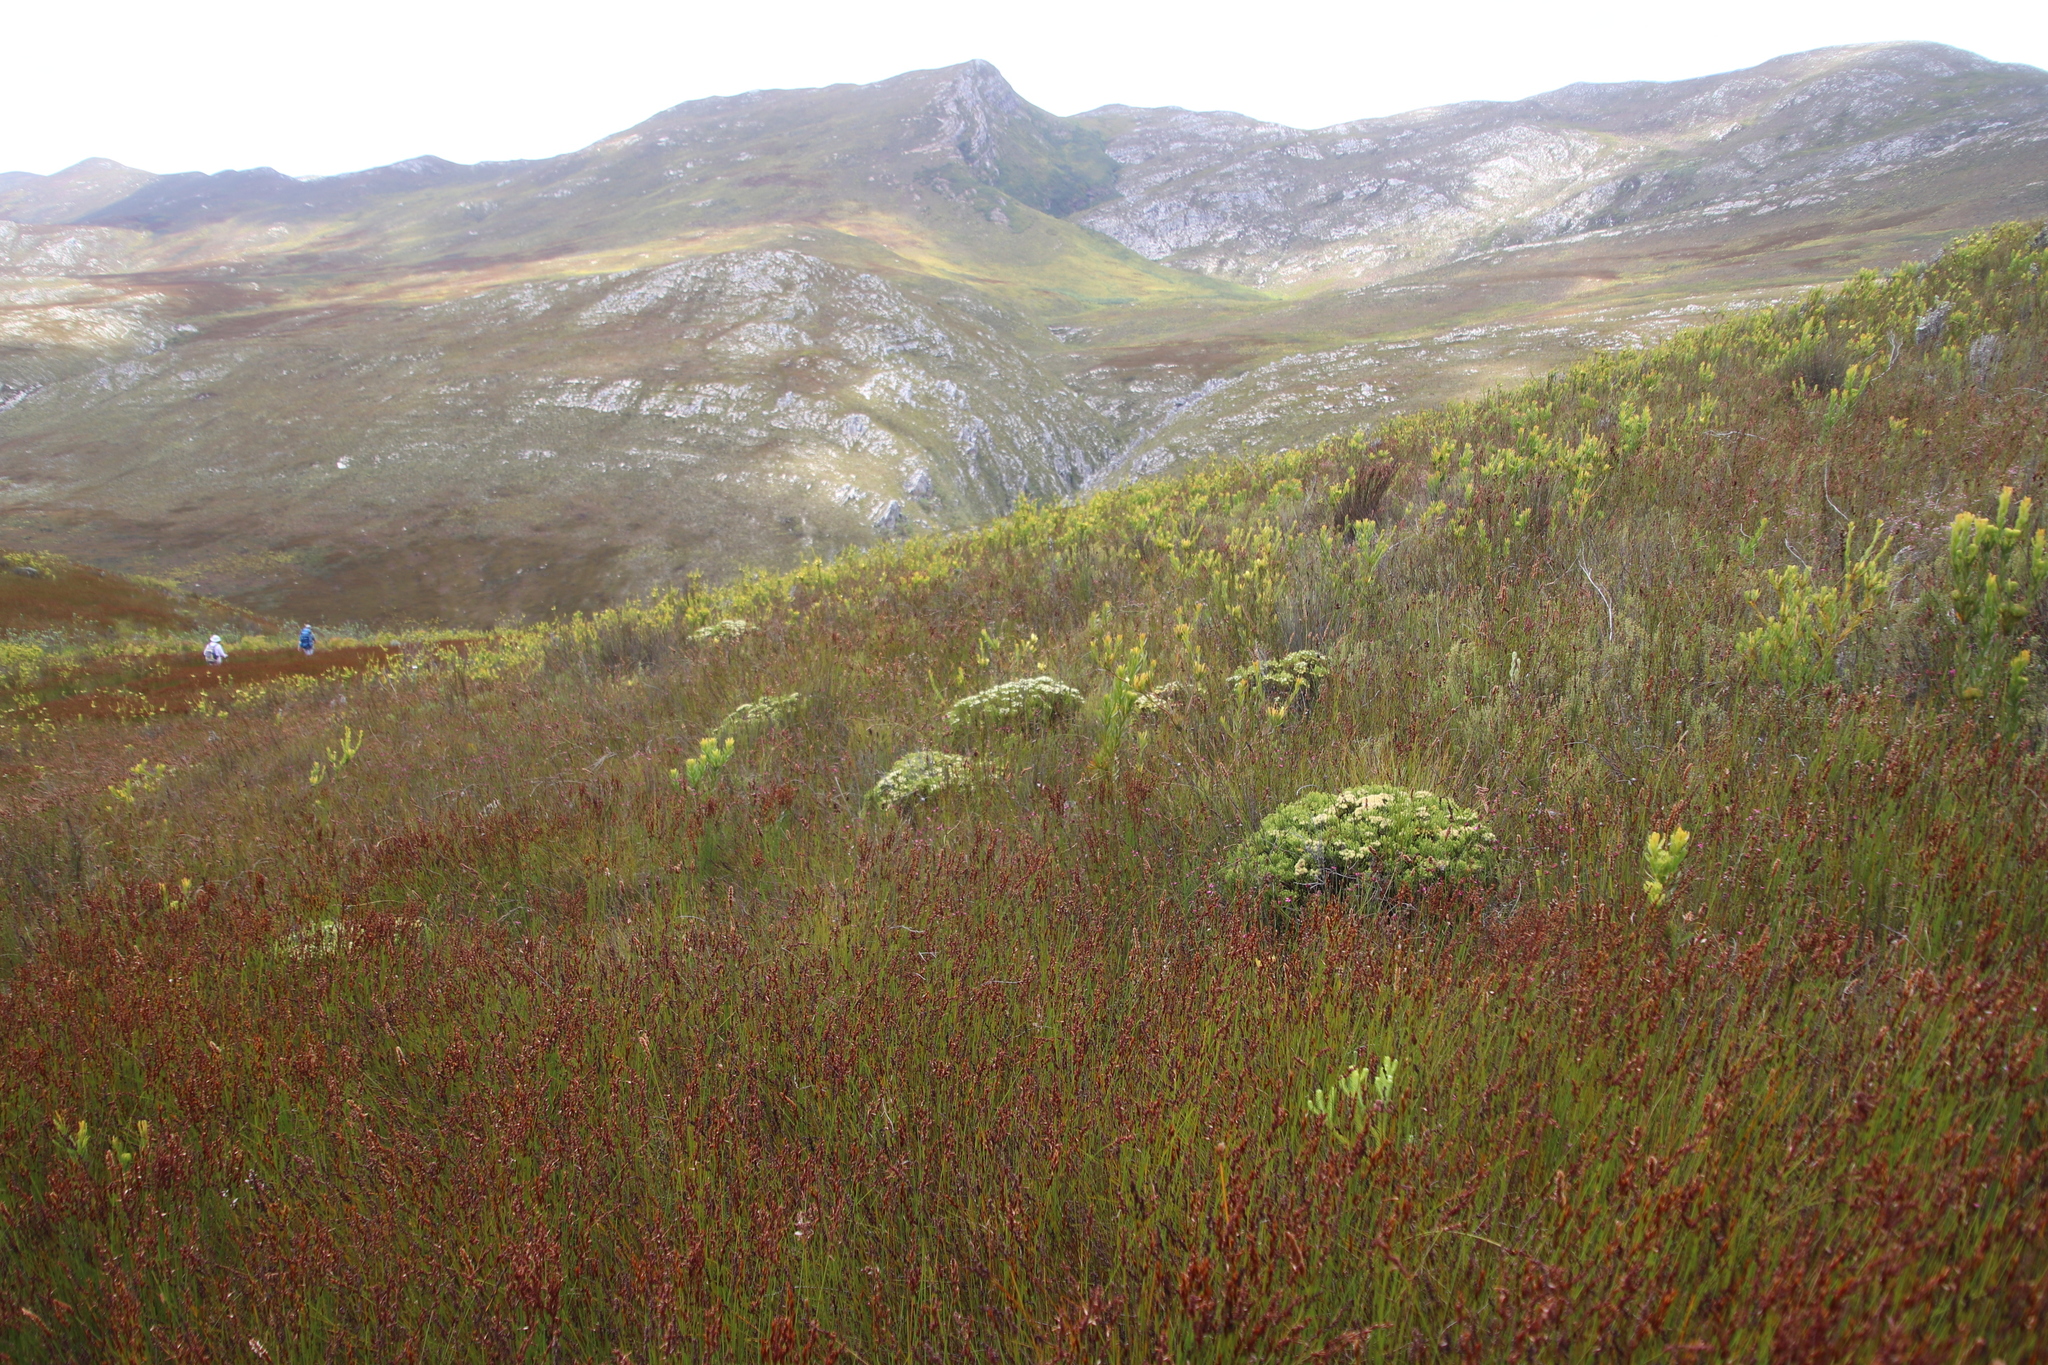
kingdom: Plantae
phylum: Tracheophyta
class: Magnoliopsida
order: Bruniales
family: Bruniaceae
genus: Brunia
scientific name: Brunia paleacea
